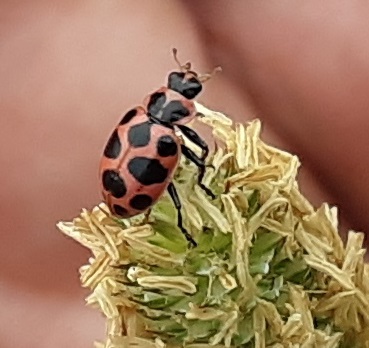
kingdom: Animalia
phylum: Arthropoda
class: Insecta
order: Coleoptera
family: Coccinellidae
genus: Coleomegilla
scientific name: Coleomegilla maculata
